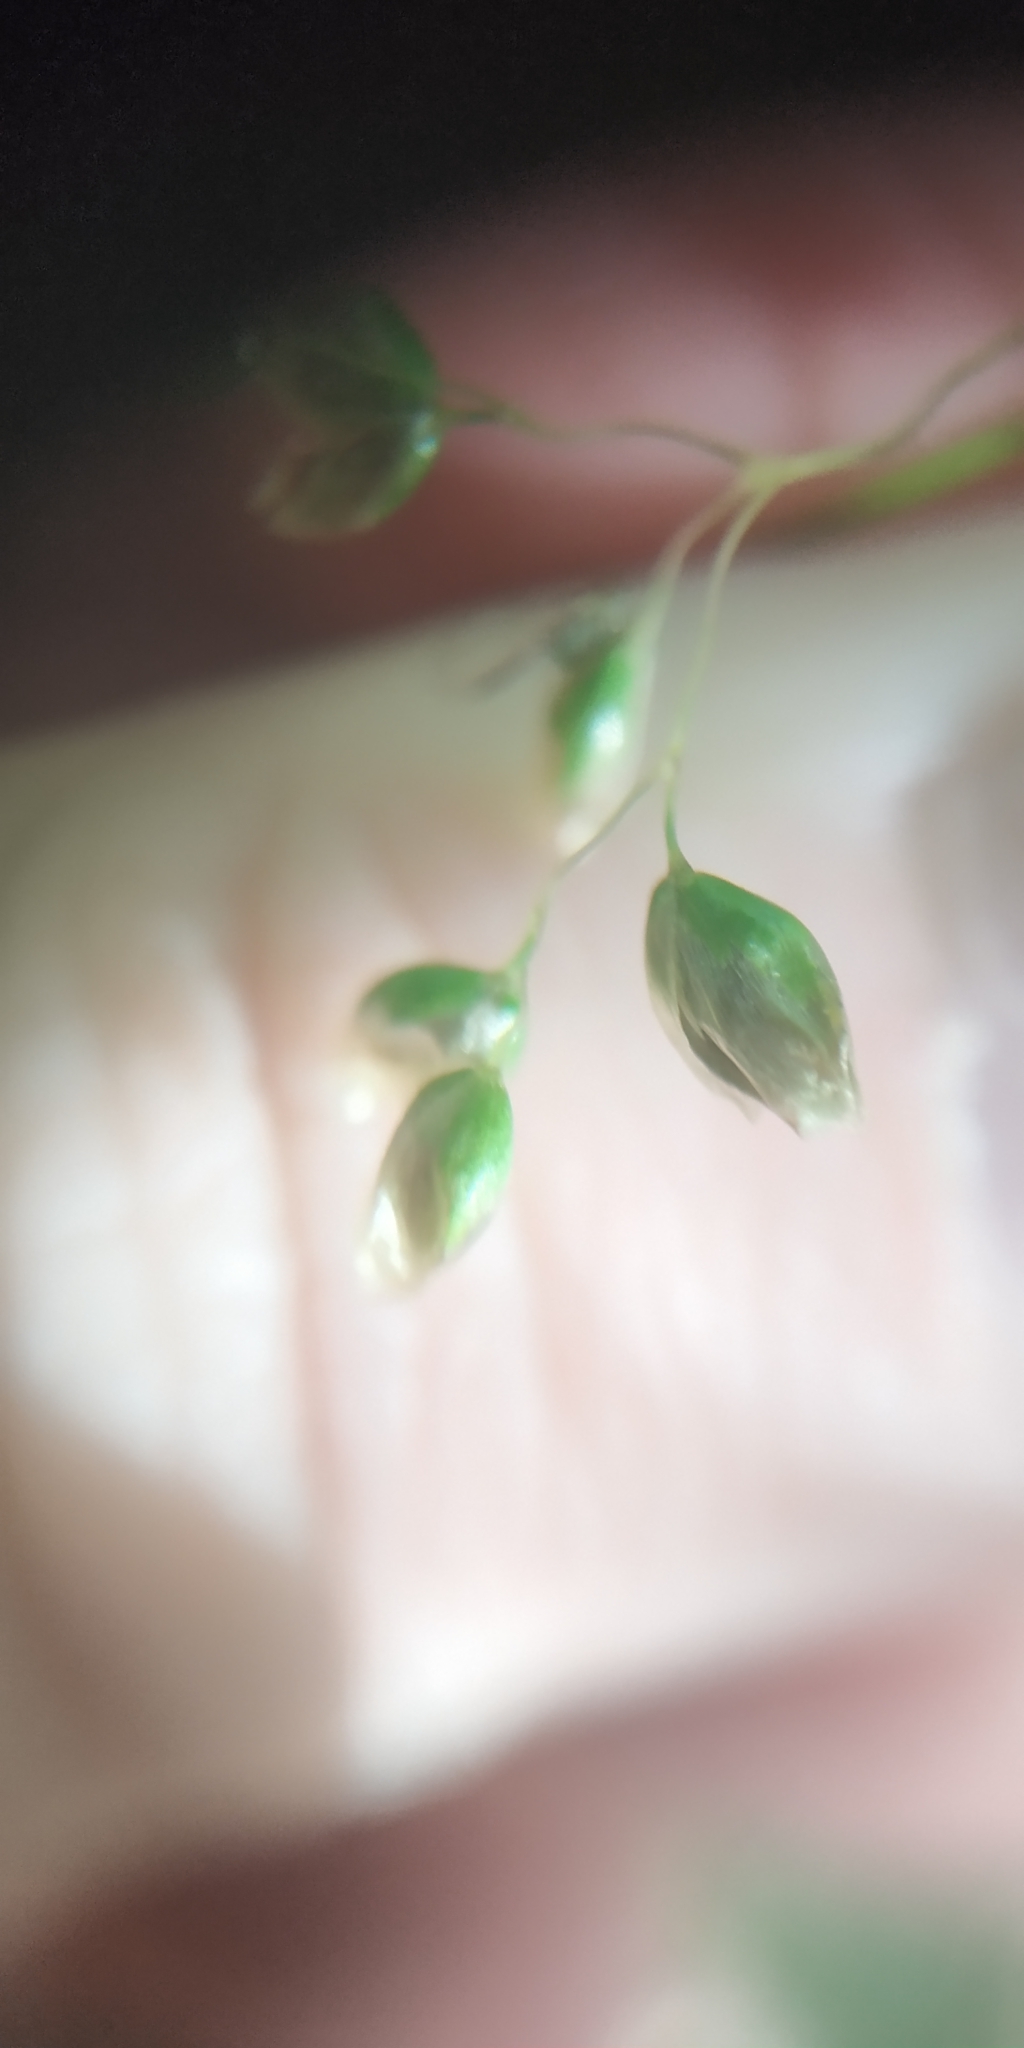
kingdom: Plantae
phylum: Tracheophyta
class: Liliopsida
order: Poales
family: Poaceae
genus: Anthoxanthum
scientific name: Anthoxanthum nitens
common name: Holy grass
